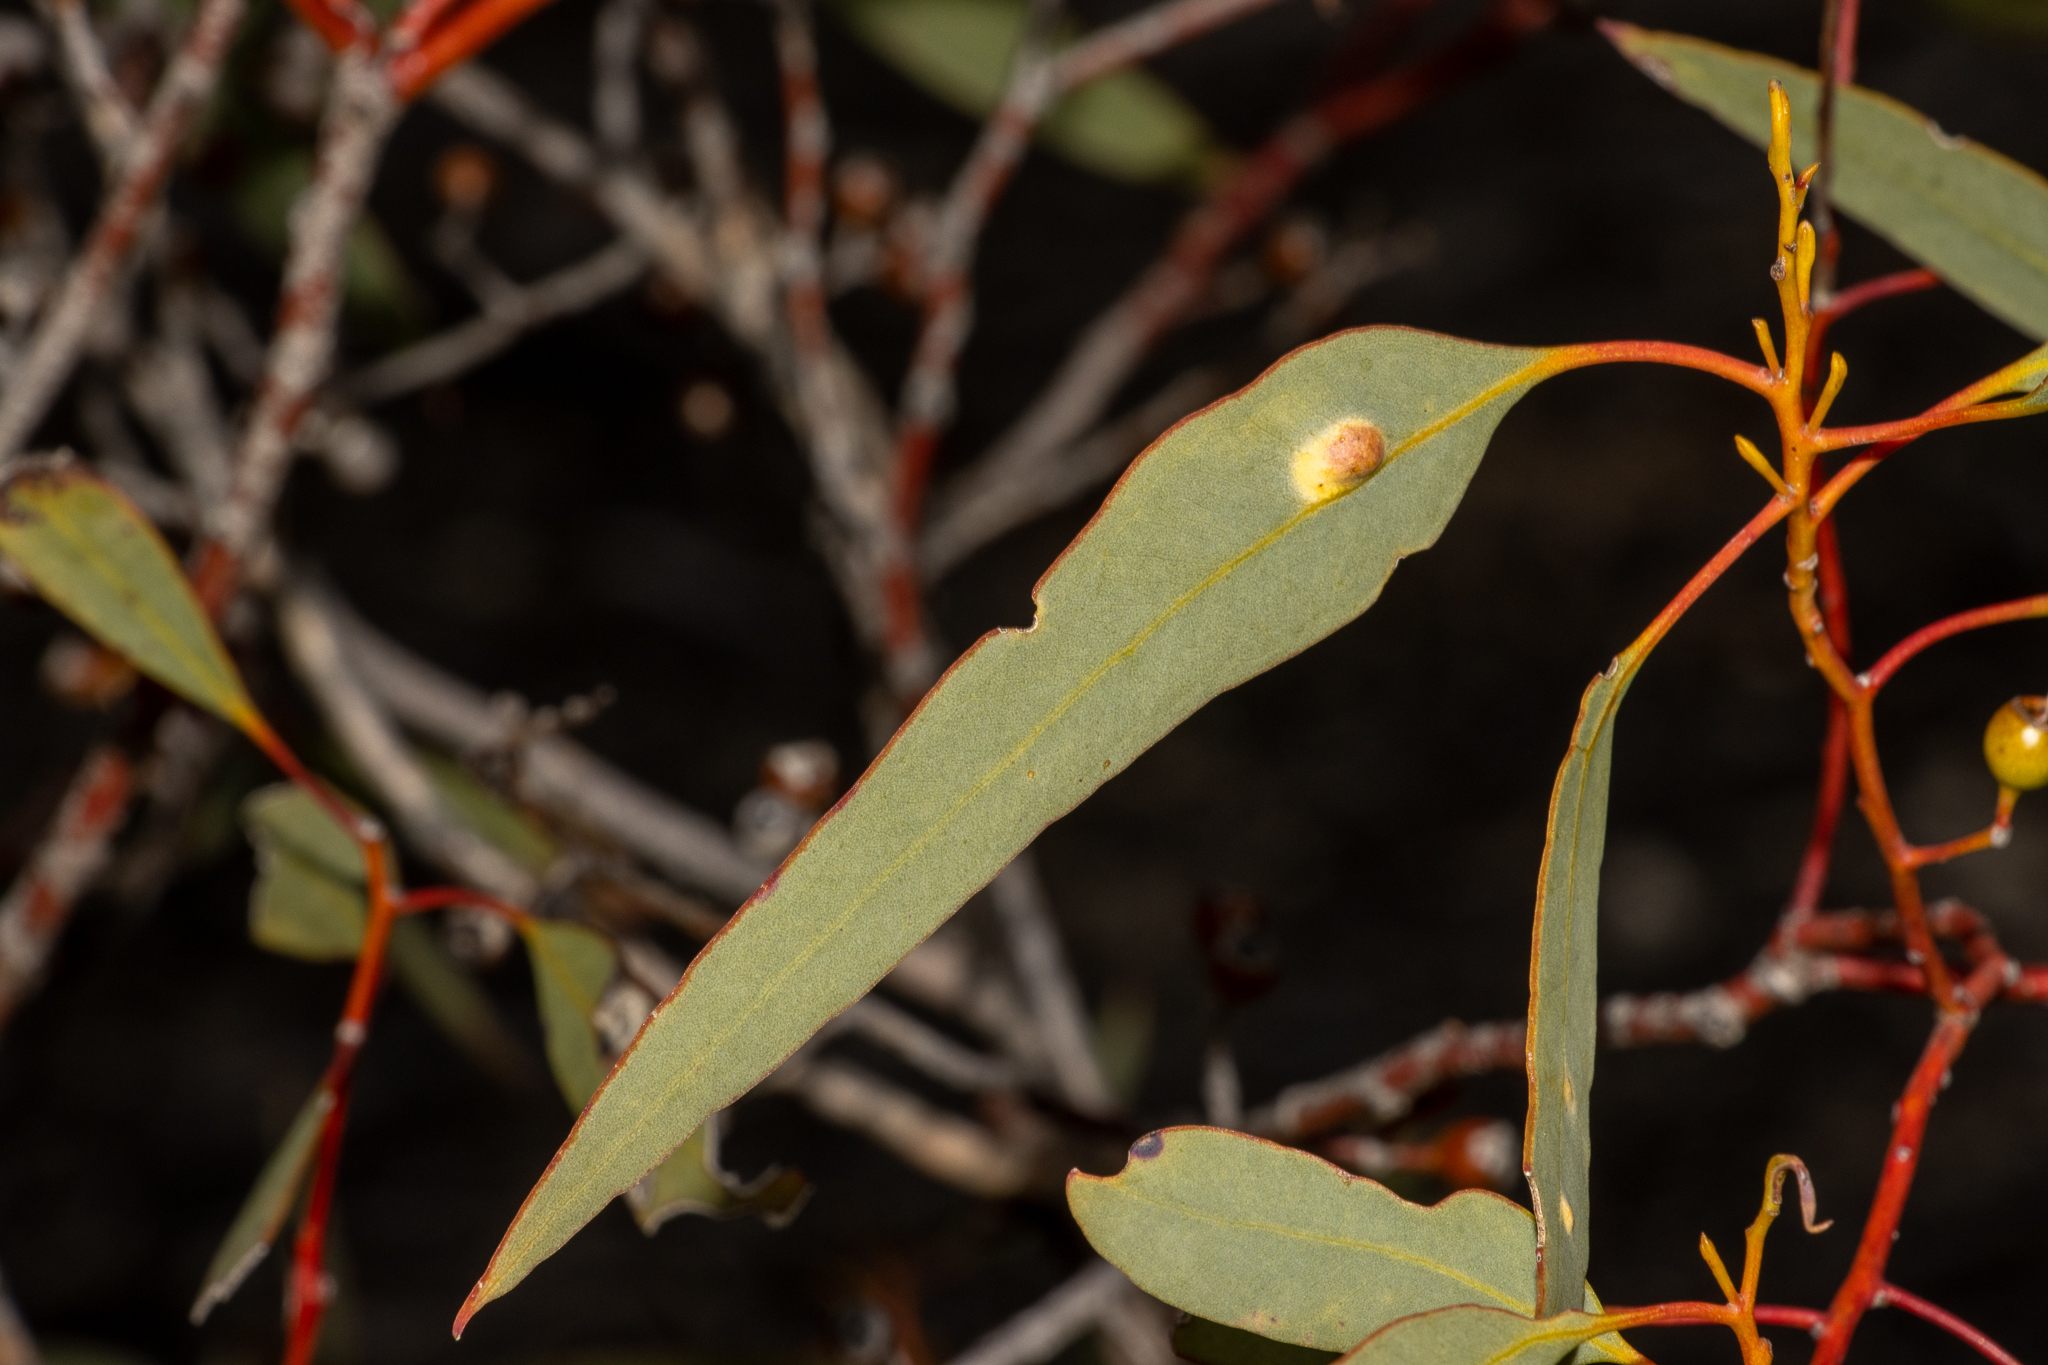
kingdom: Plantae
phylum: Tracheophyta
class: Magnoliopsida
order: Myrtales
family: Myrtaceae
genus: Eucalyptus
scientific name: Eucalyptus socialis
